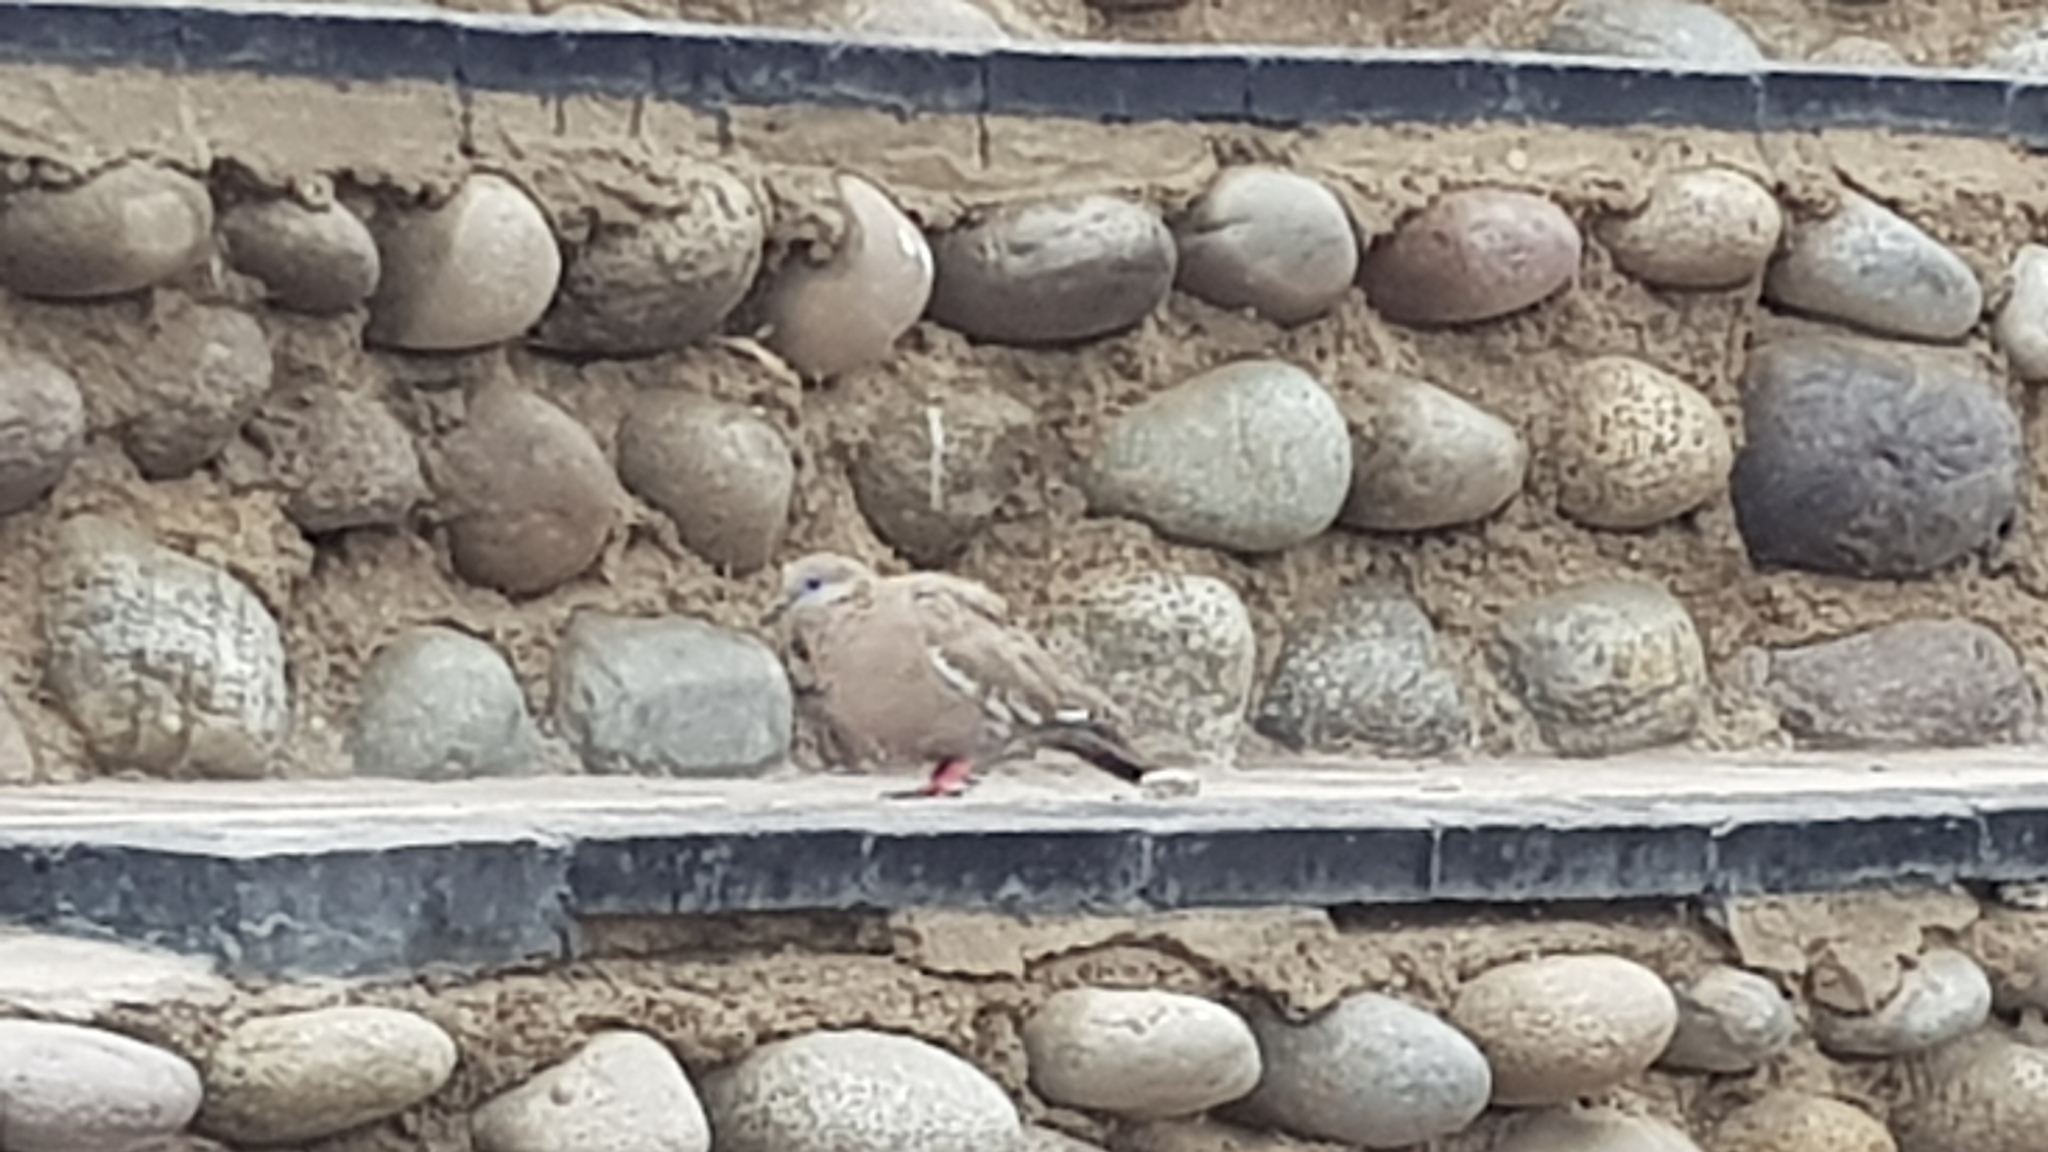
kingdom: Animalia
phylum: Chordata
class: Aves
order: Columbiformes
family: Columbidae
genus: Zenaida
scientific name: Zenaida meloda
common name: West peruvian dove
